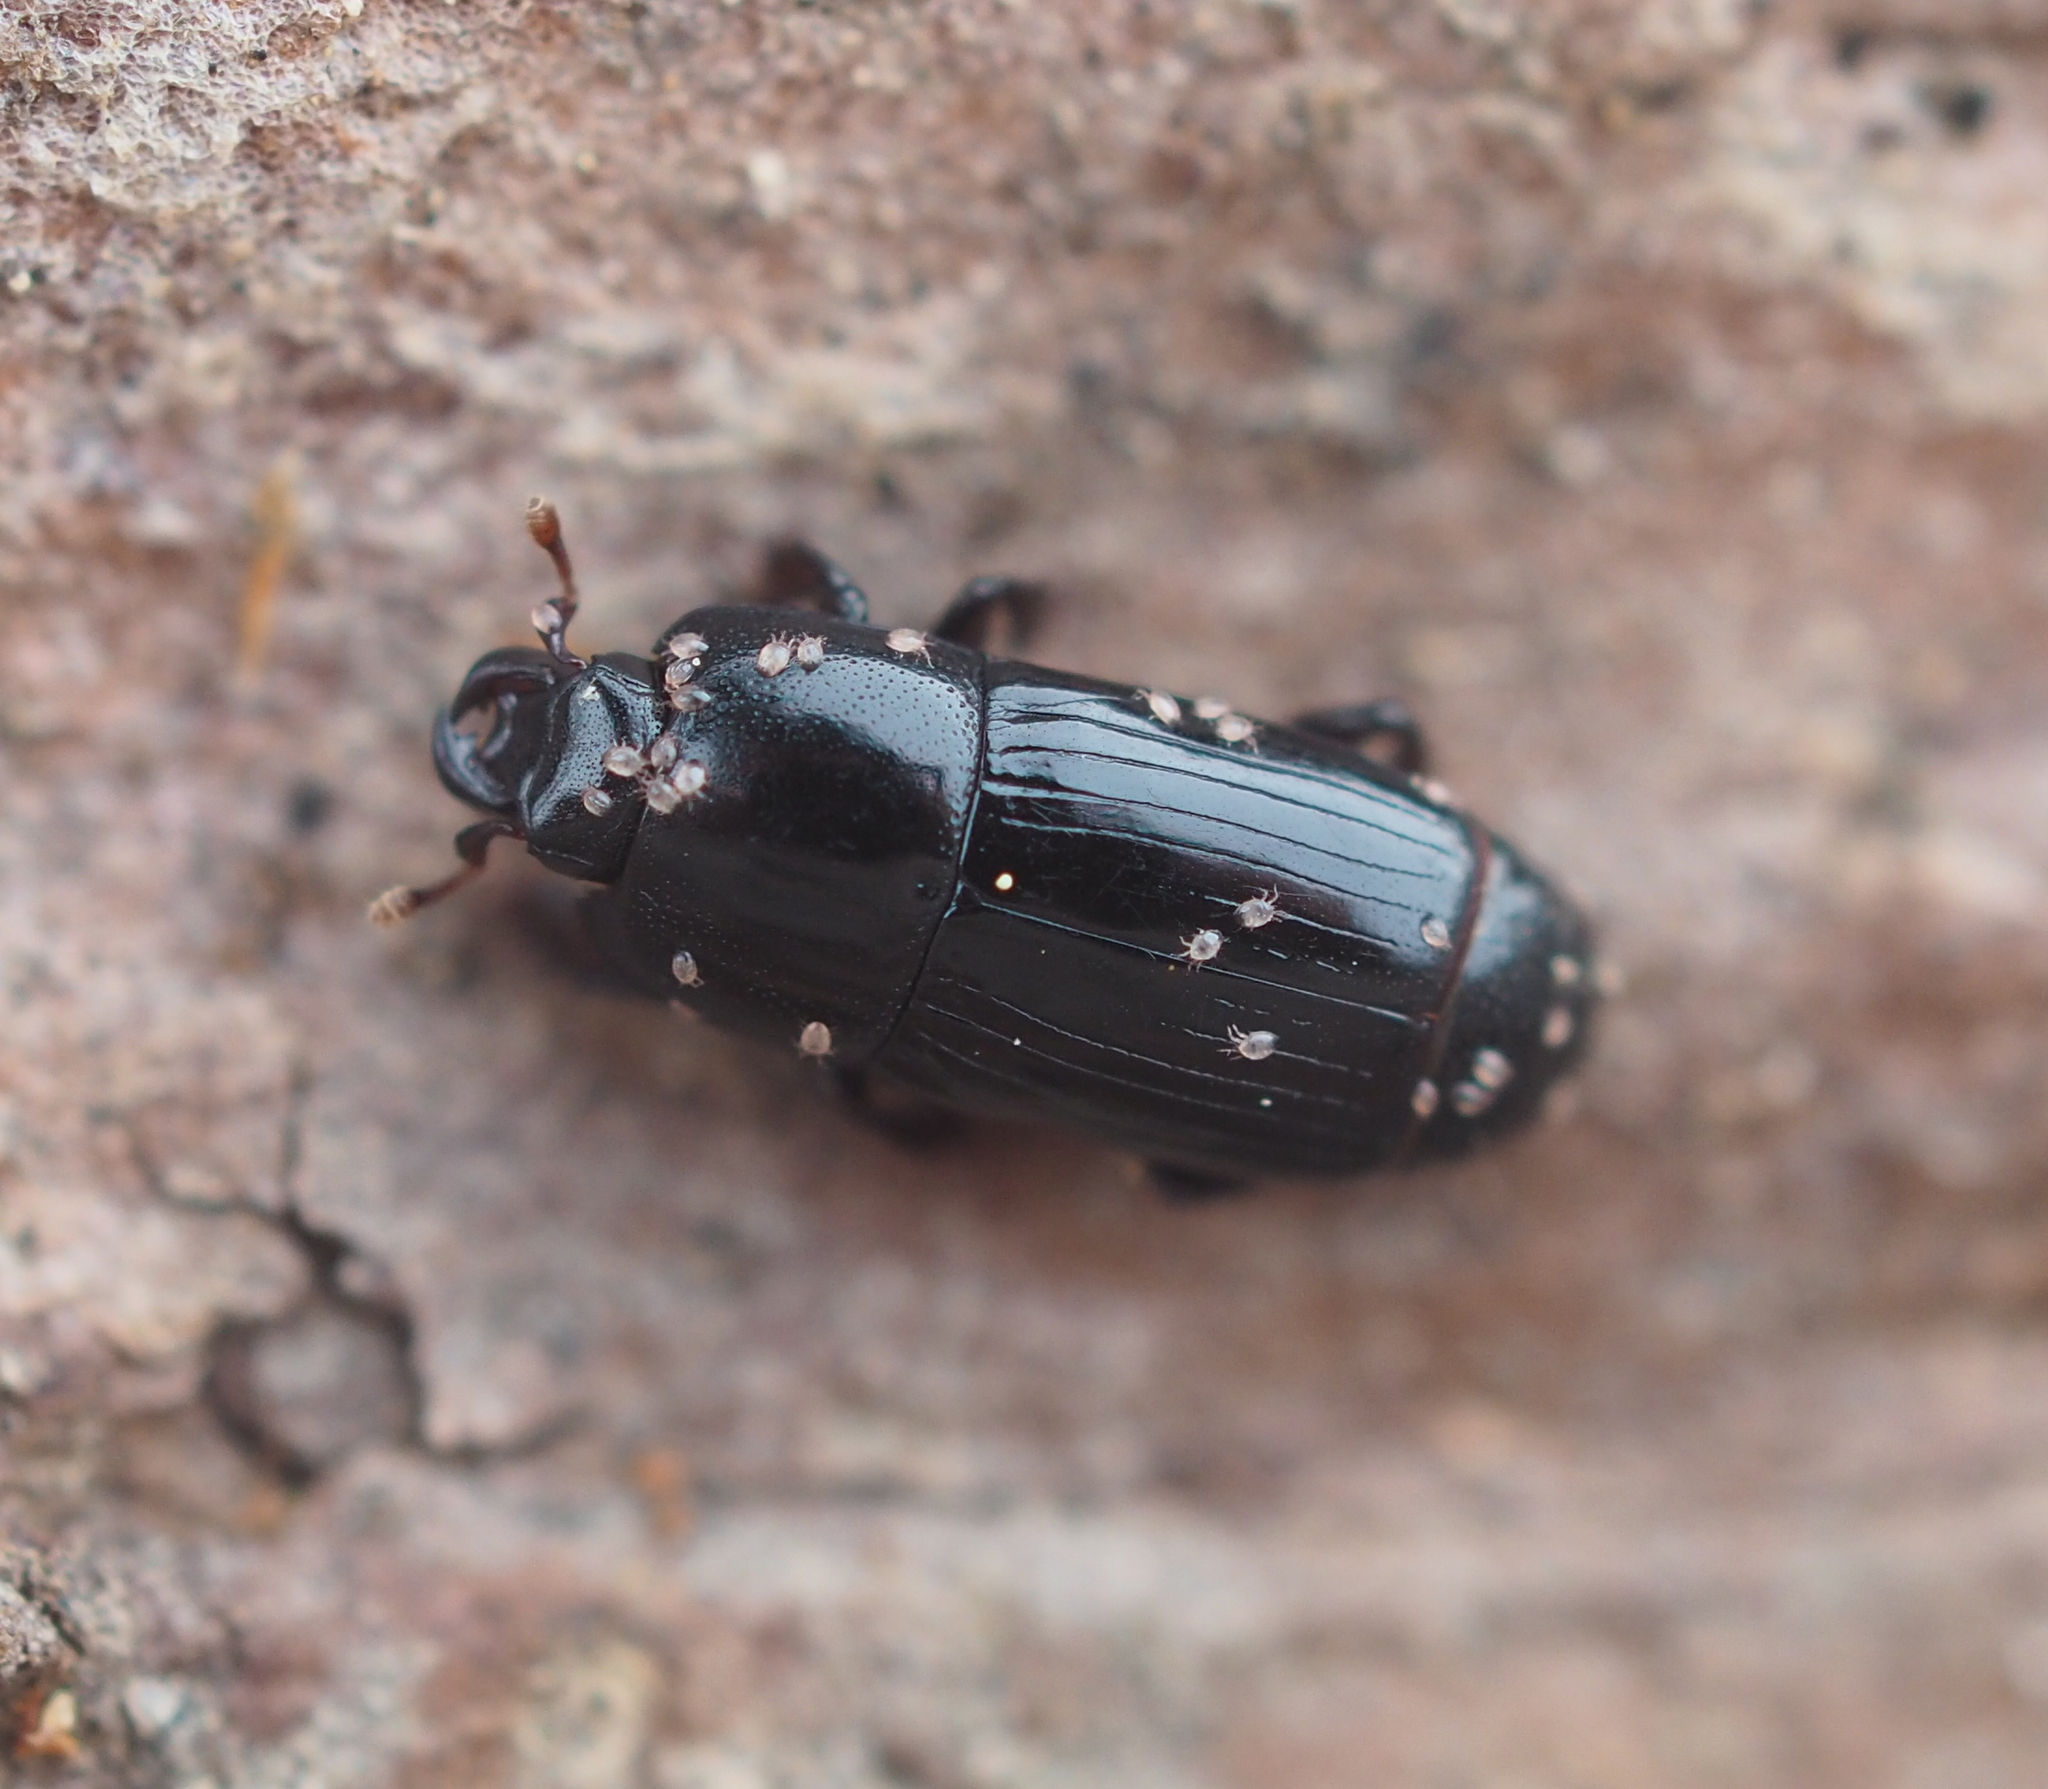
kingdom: Animalia
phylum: Arthropoda
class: Insecta
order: Coleoptera
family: Histeridae
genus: Platysoma
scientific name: Platysoma filiforme
